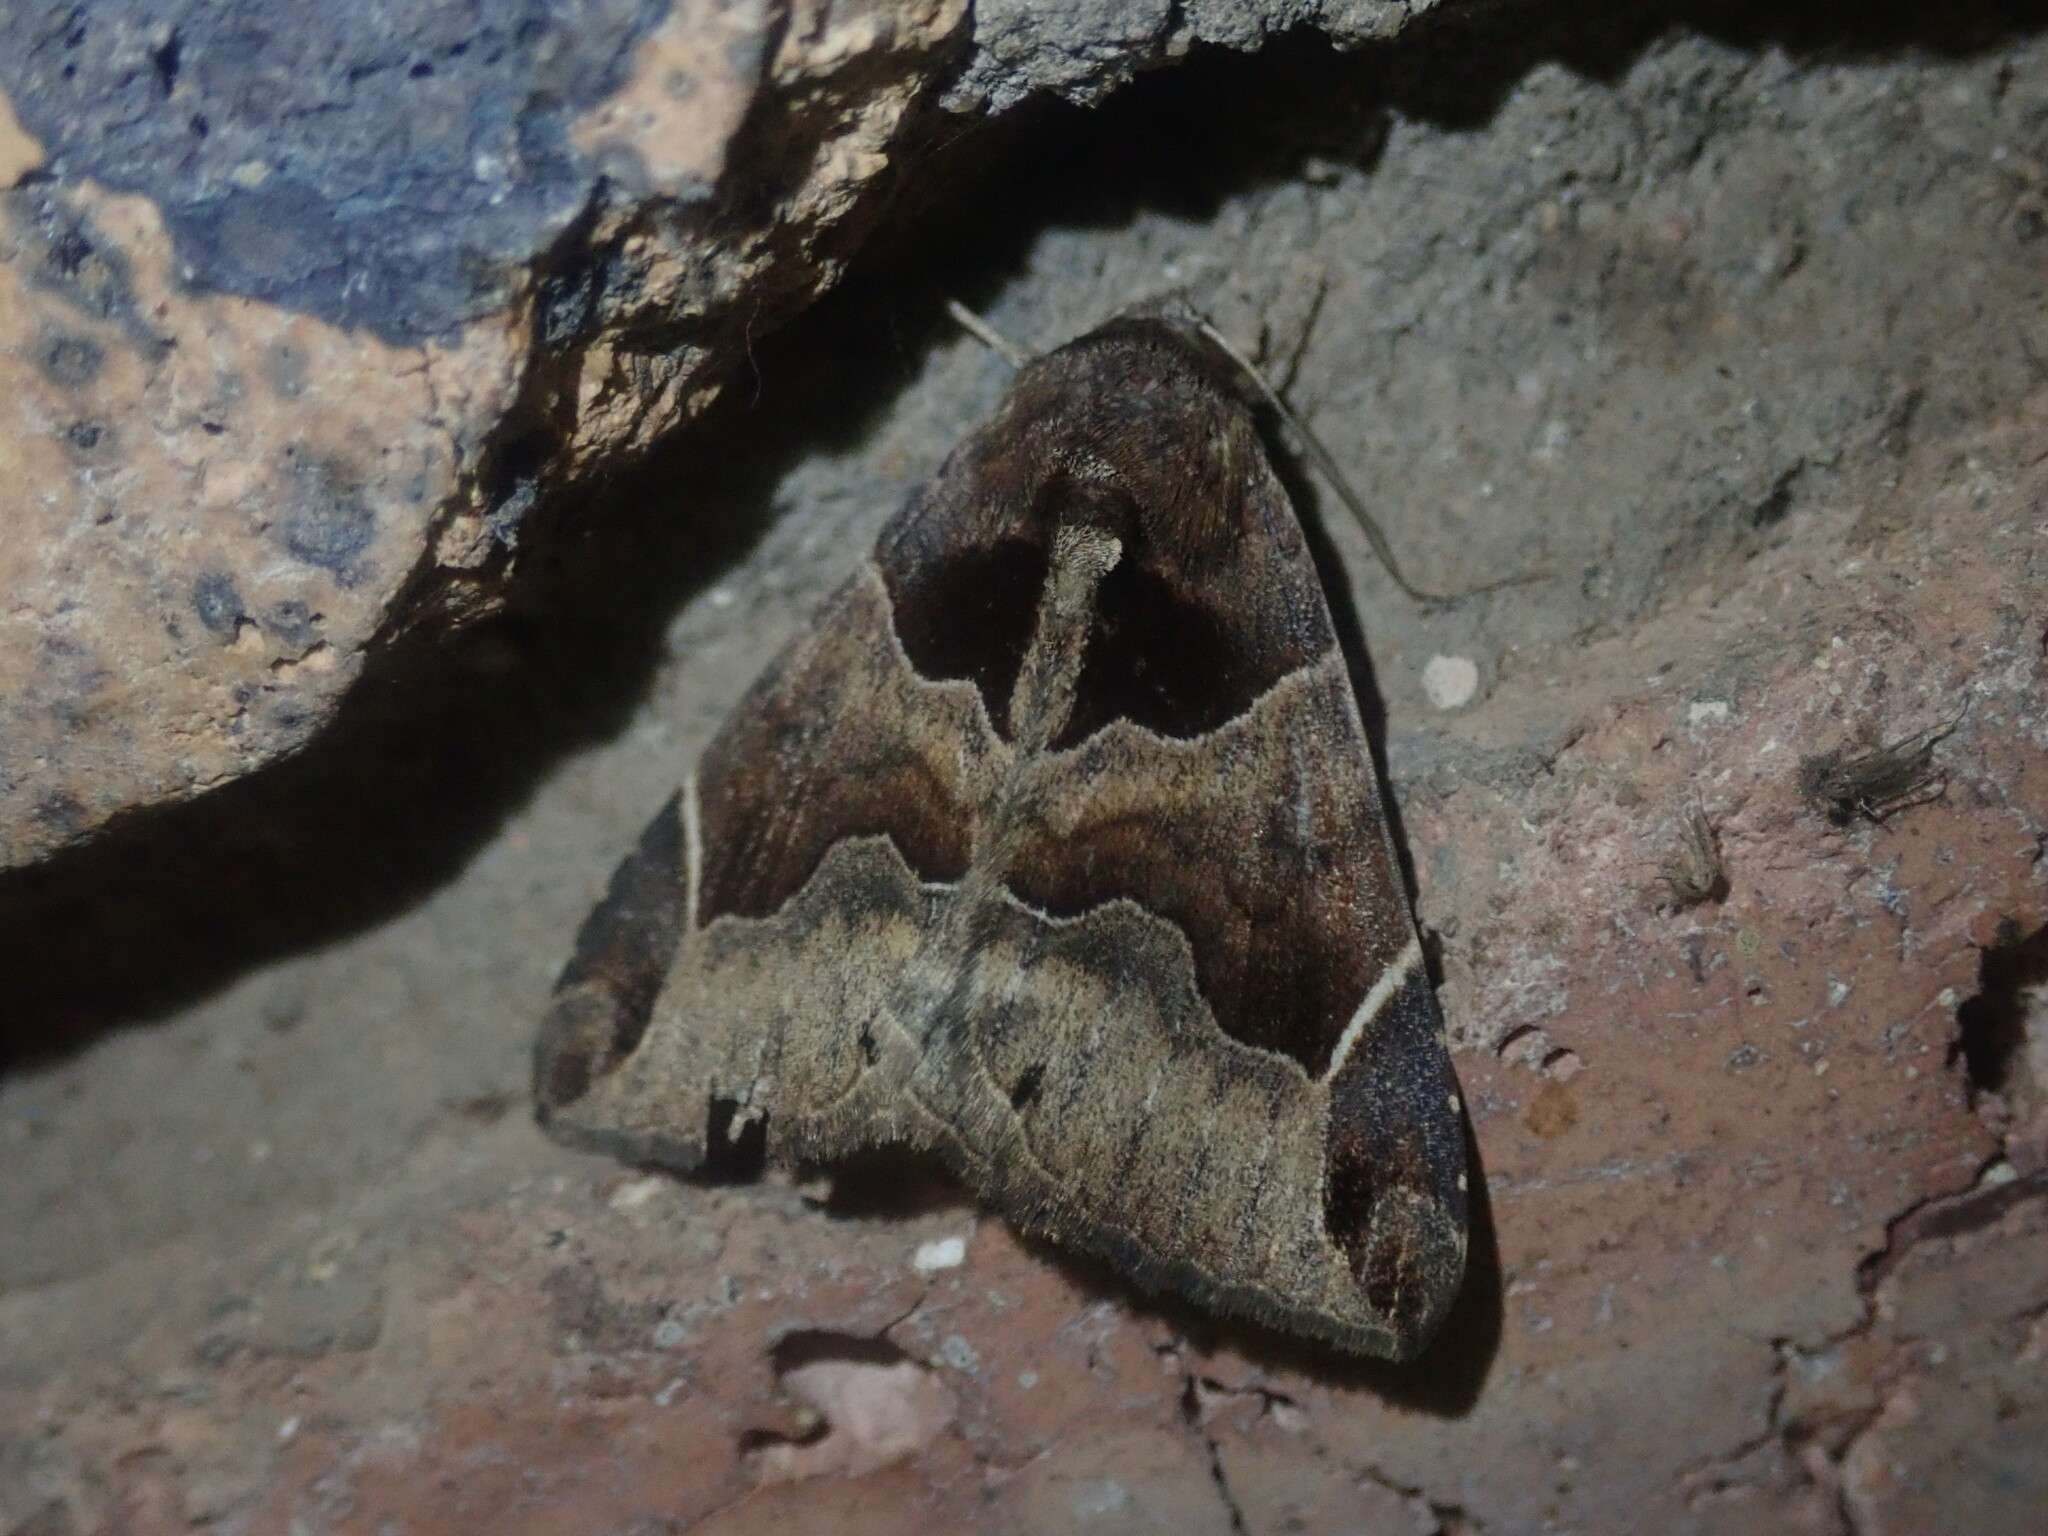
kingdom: Animalia
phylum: Arthropoda
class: Insecta
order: Lepidoptera
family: Erebidae
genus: Parallelia
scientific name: Parallelia abnegans
